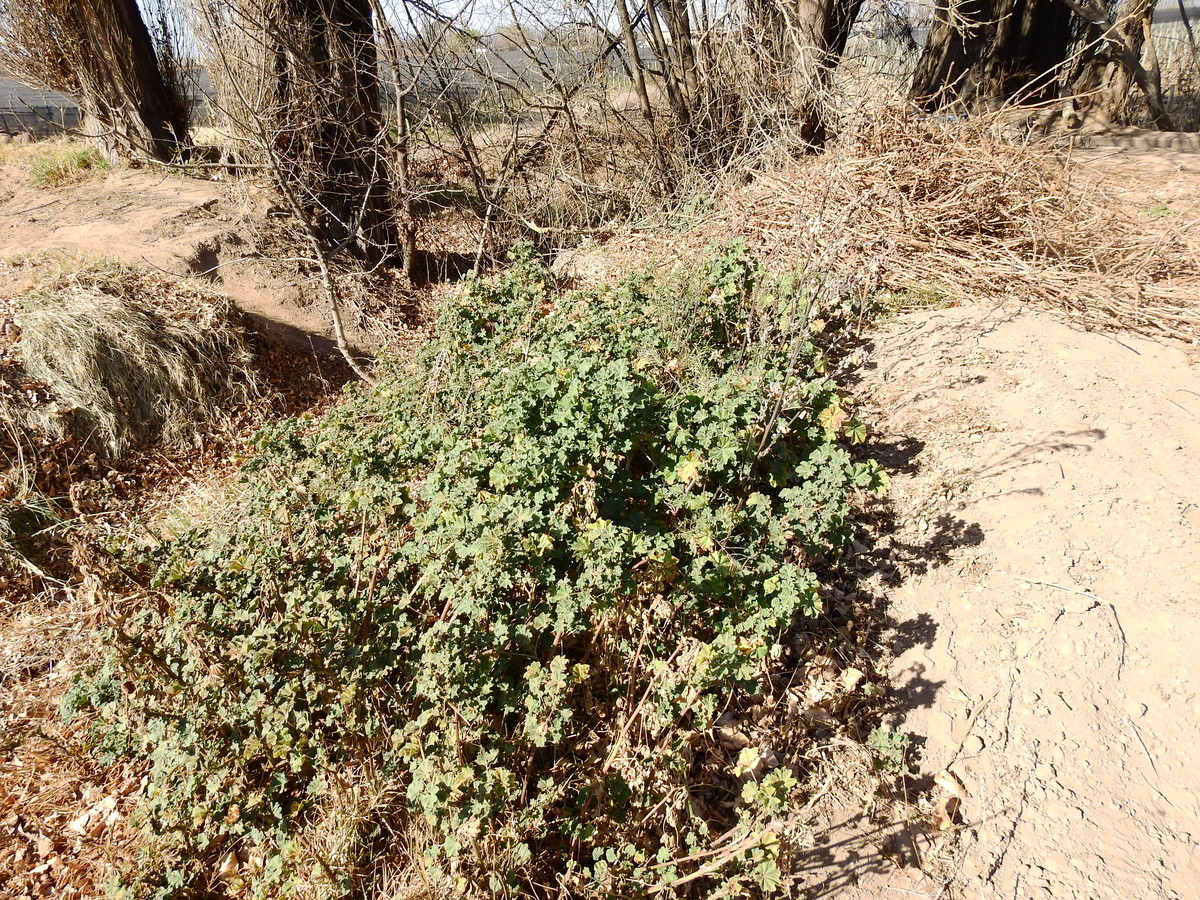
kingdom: Plantae
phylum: Tracheophyta
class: Magnoliopsida
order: Malvales
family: Malvaceae
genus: Malva
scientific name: Malva parviflora
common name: Least mallow
